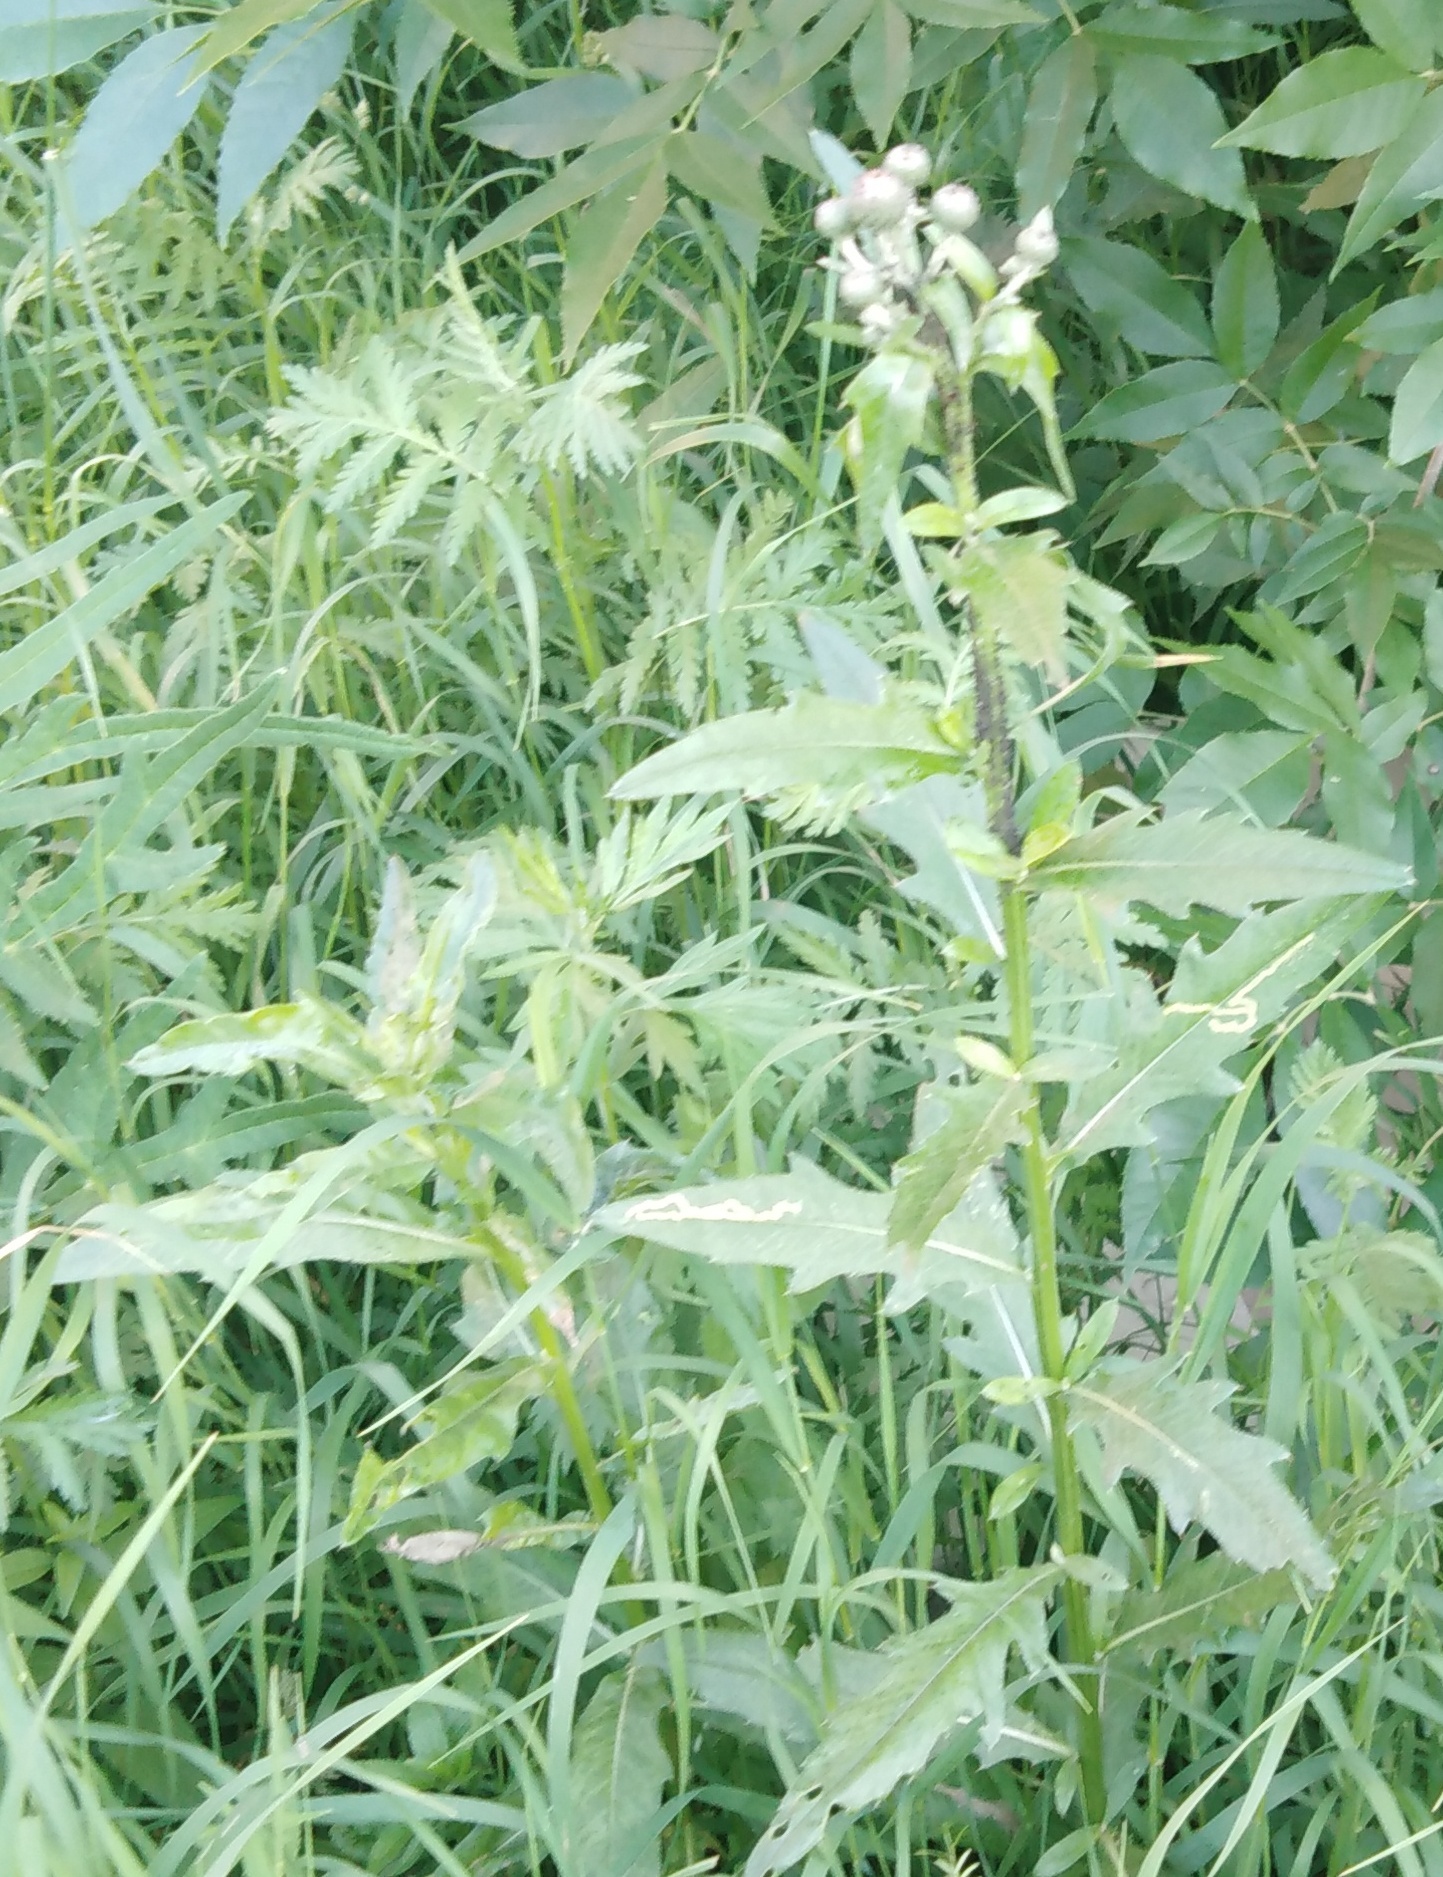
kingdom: Plantae
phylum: Tracheophyta
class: Magnoliopsida
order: Asterales
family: Asteraceae
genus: Cirsium
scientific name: Cirsium arvense
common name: Creeping thistle
